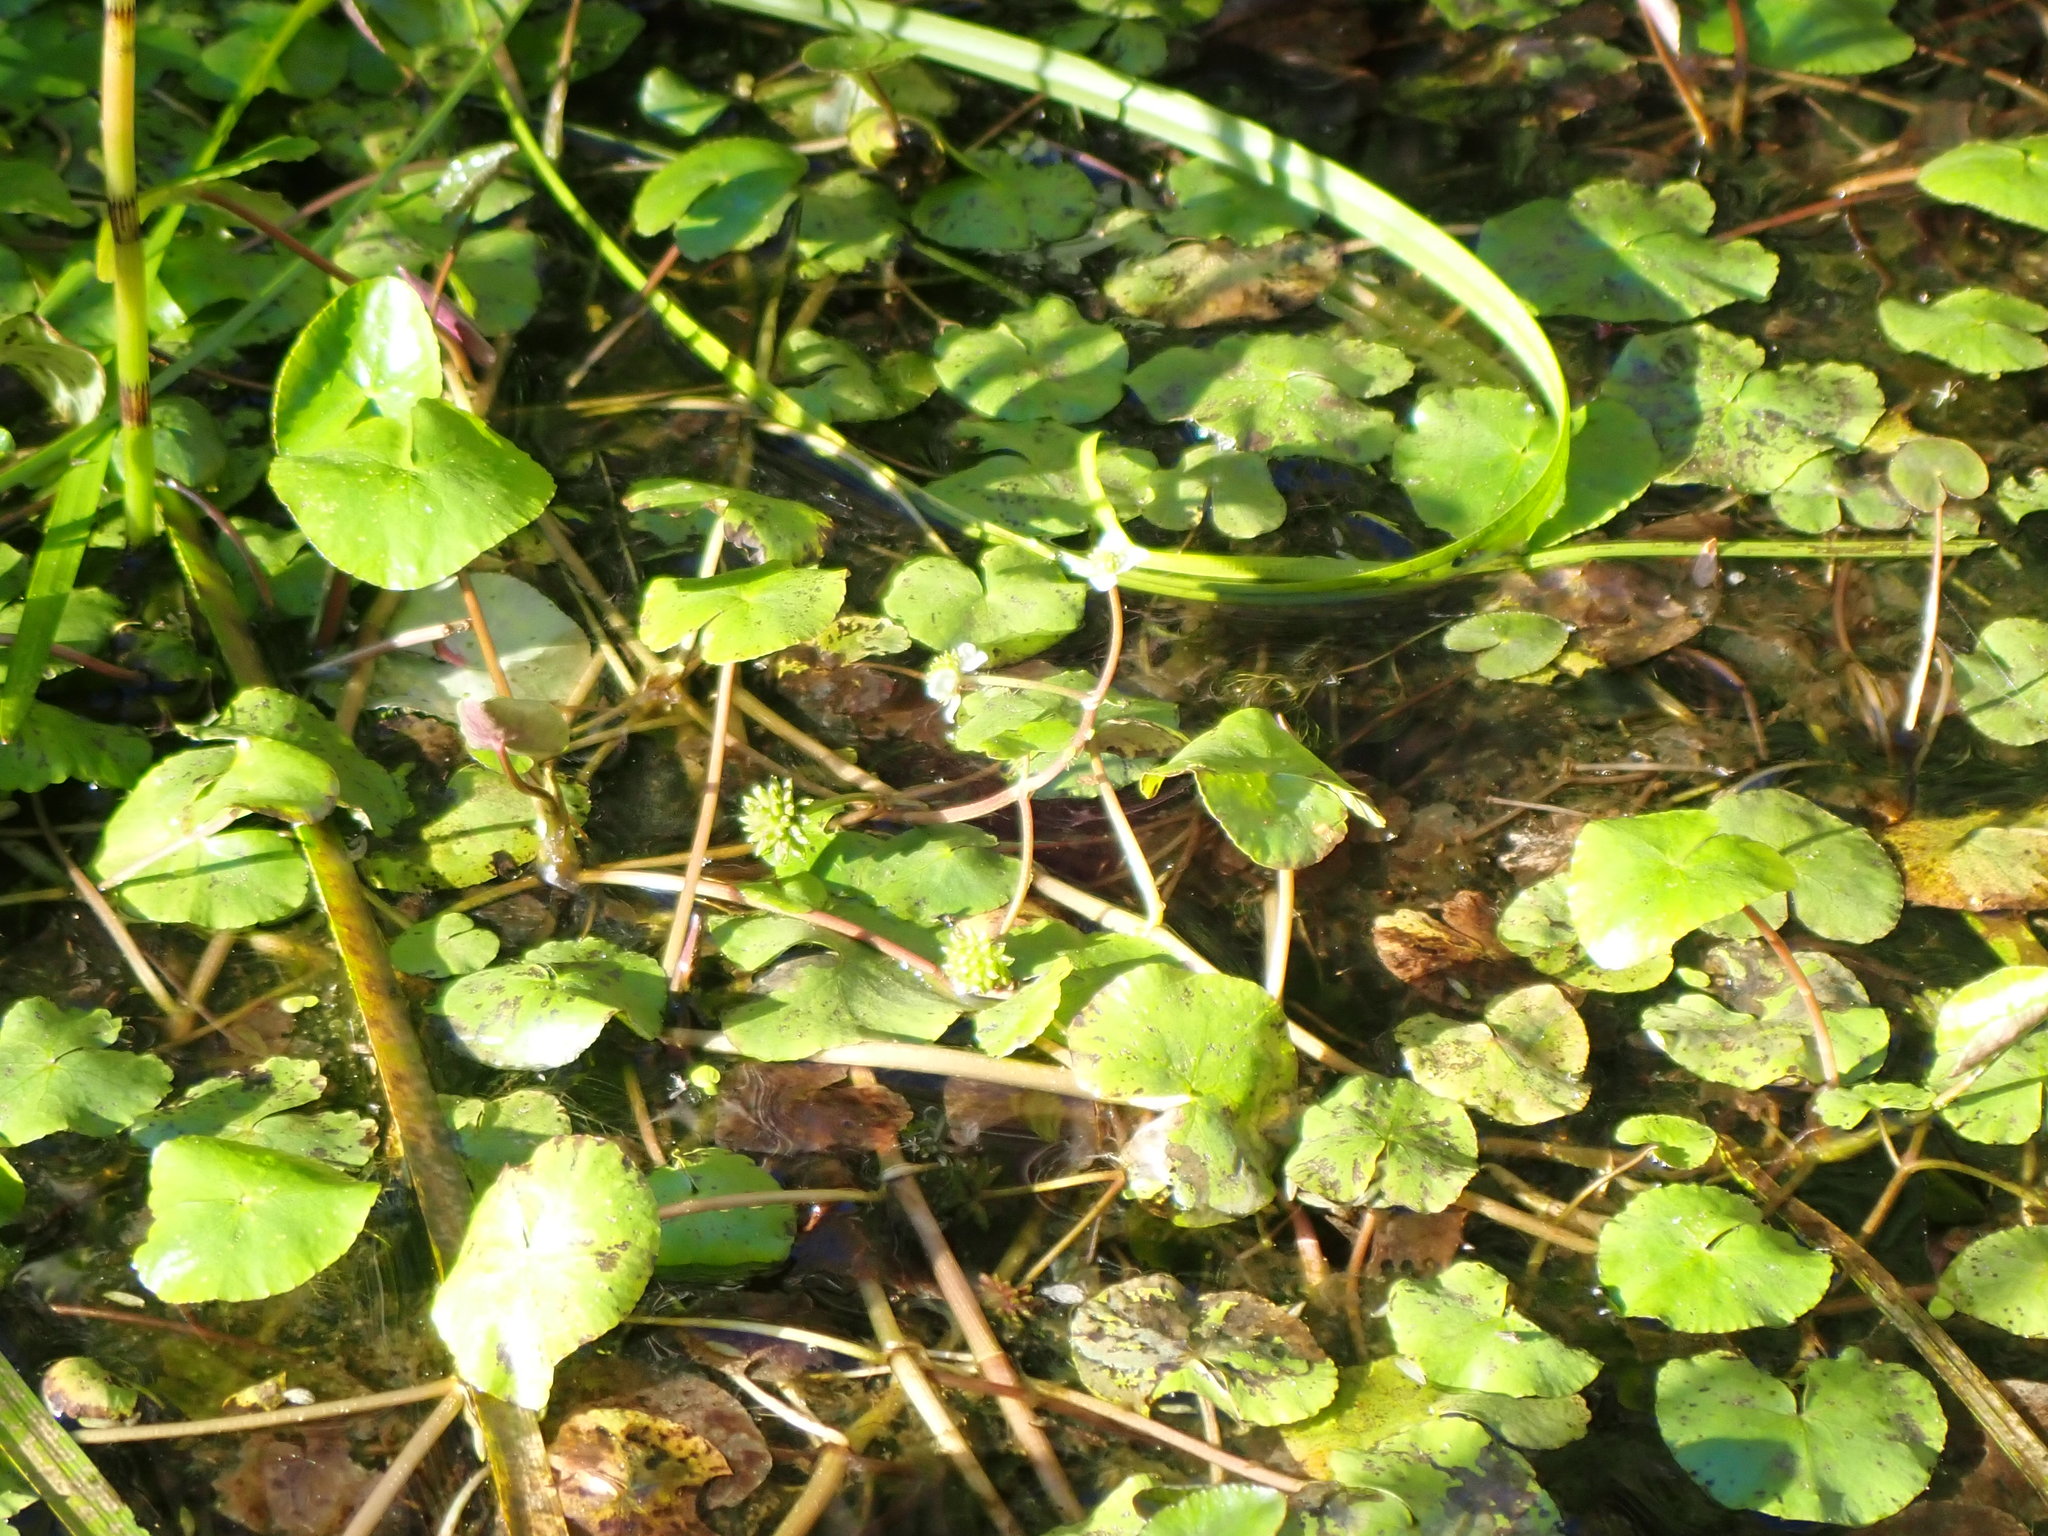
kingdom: Plantae
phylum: Tracheophyta
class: Magnoliopsida
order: Ranunculales
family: Ranunculaceae
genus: Caltha
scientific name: Caltha natans
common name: Floating marsh marigold
